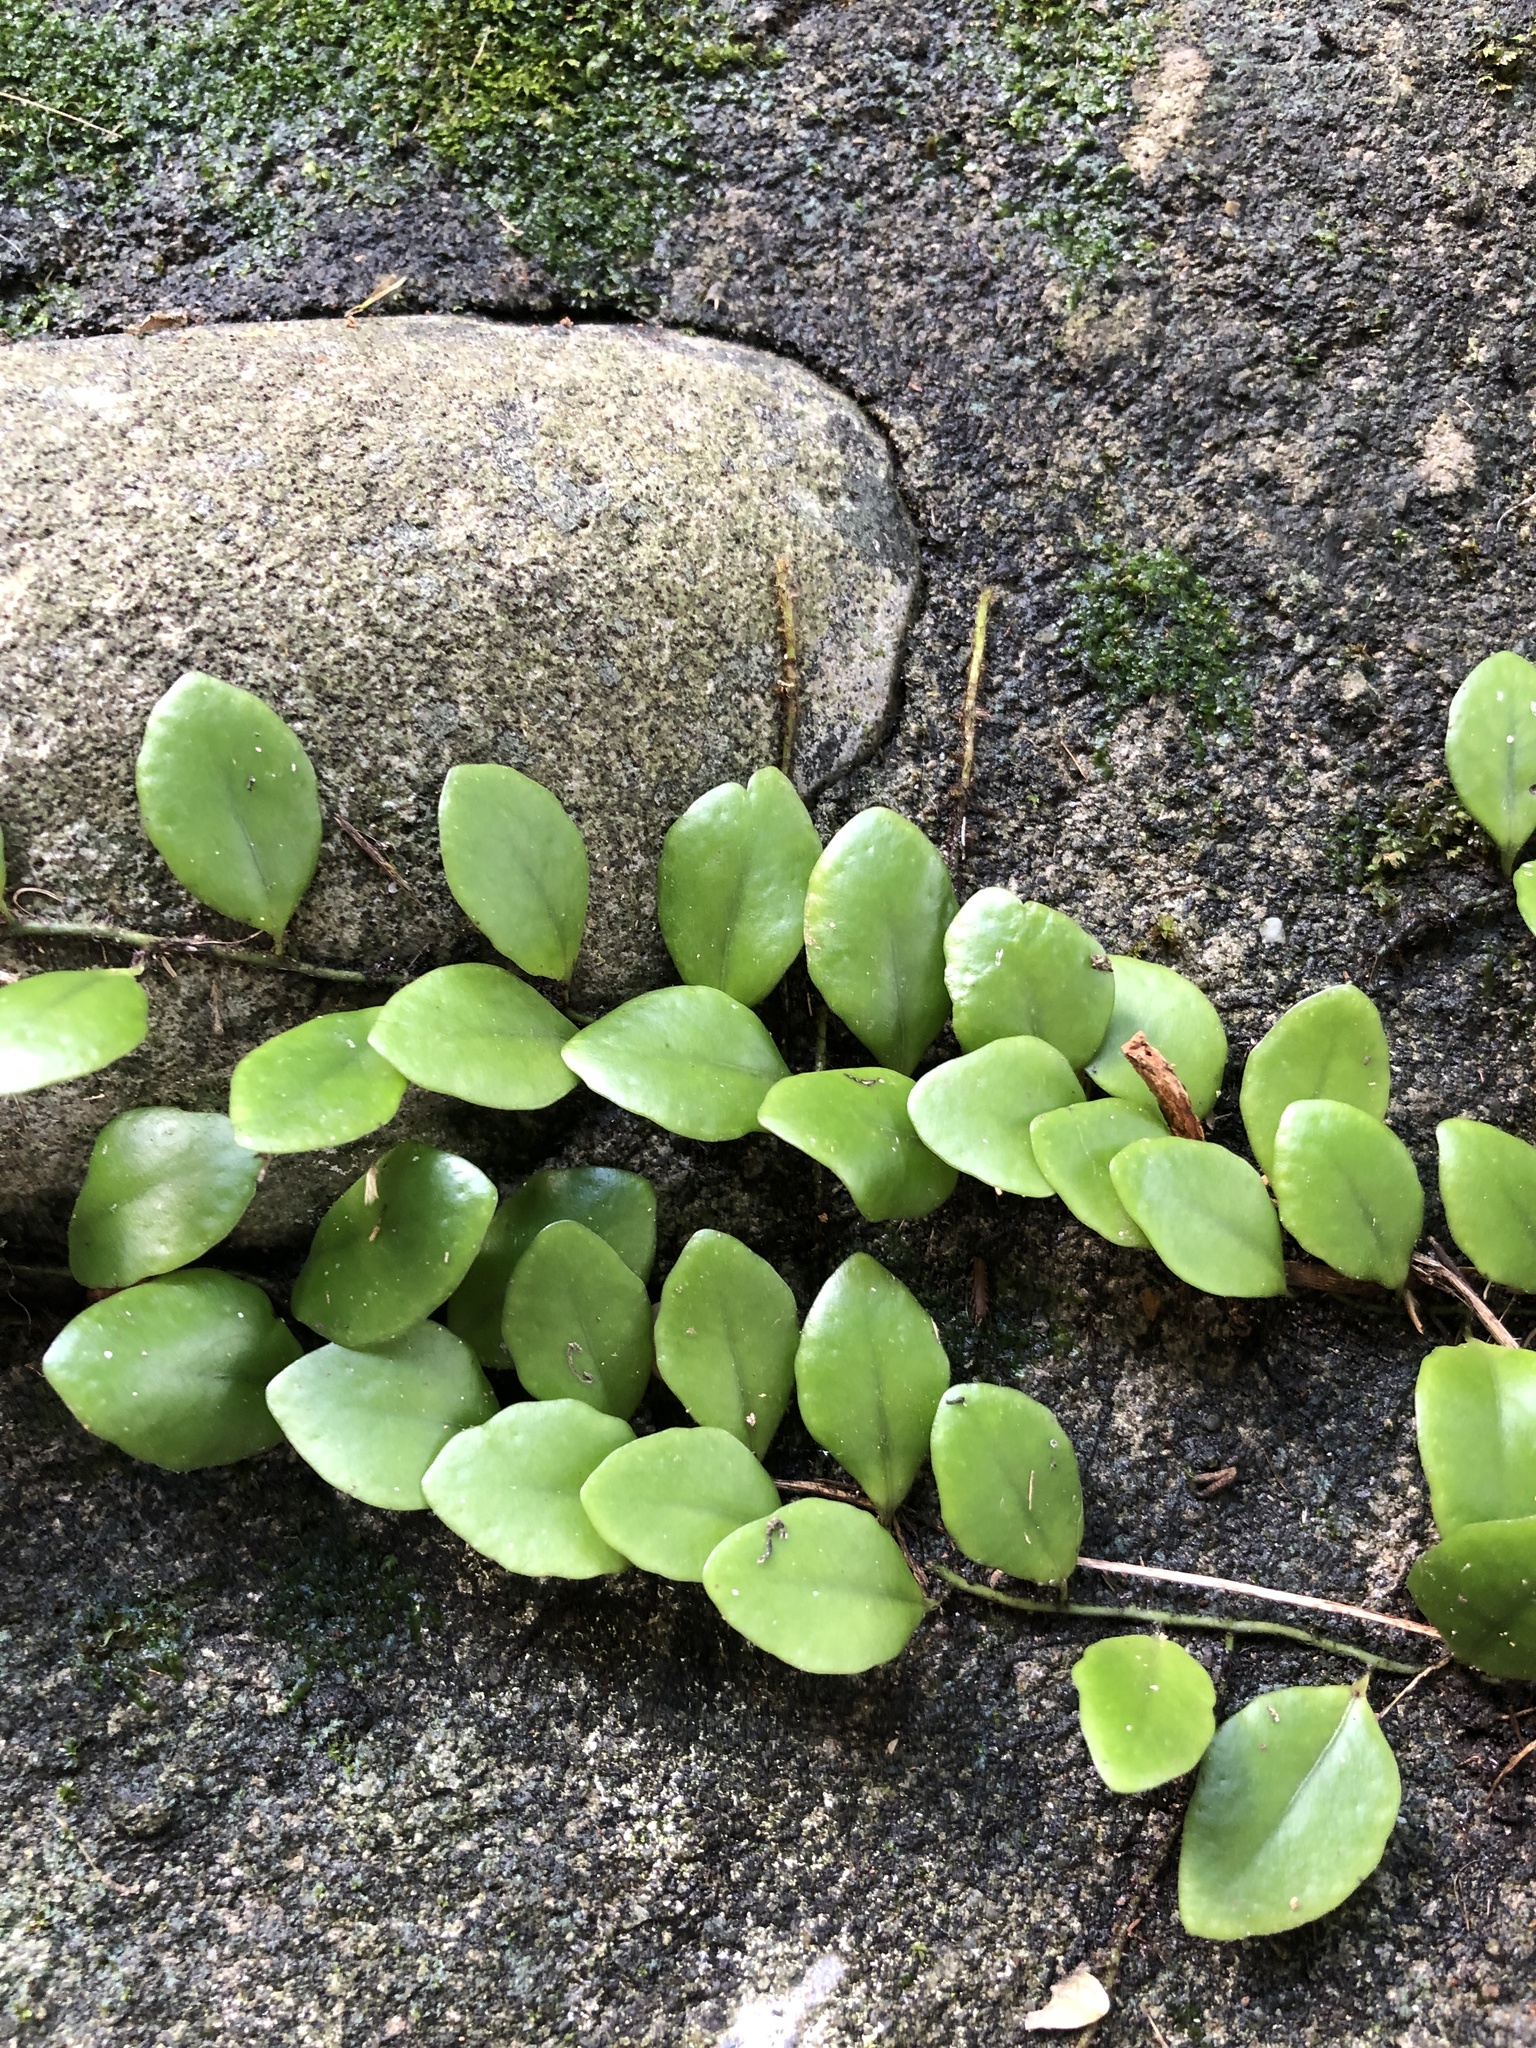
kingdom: Plantae
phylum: Tracheophyta
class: Polypodiopsida
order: Polypodiales
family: Polypodiaceae
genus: Lepisorus
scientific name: Lepisorus microphyllus
